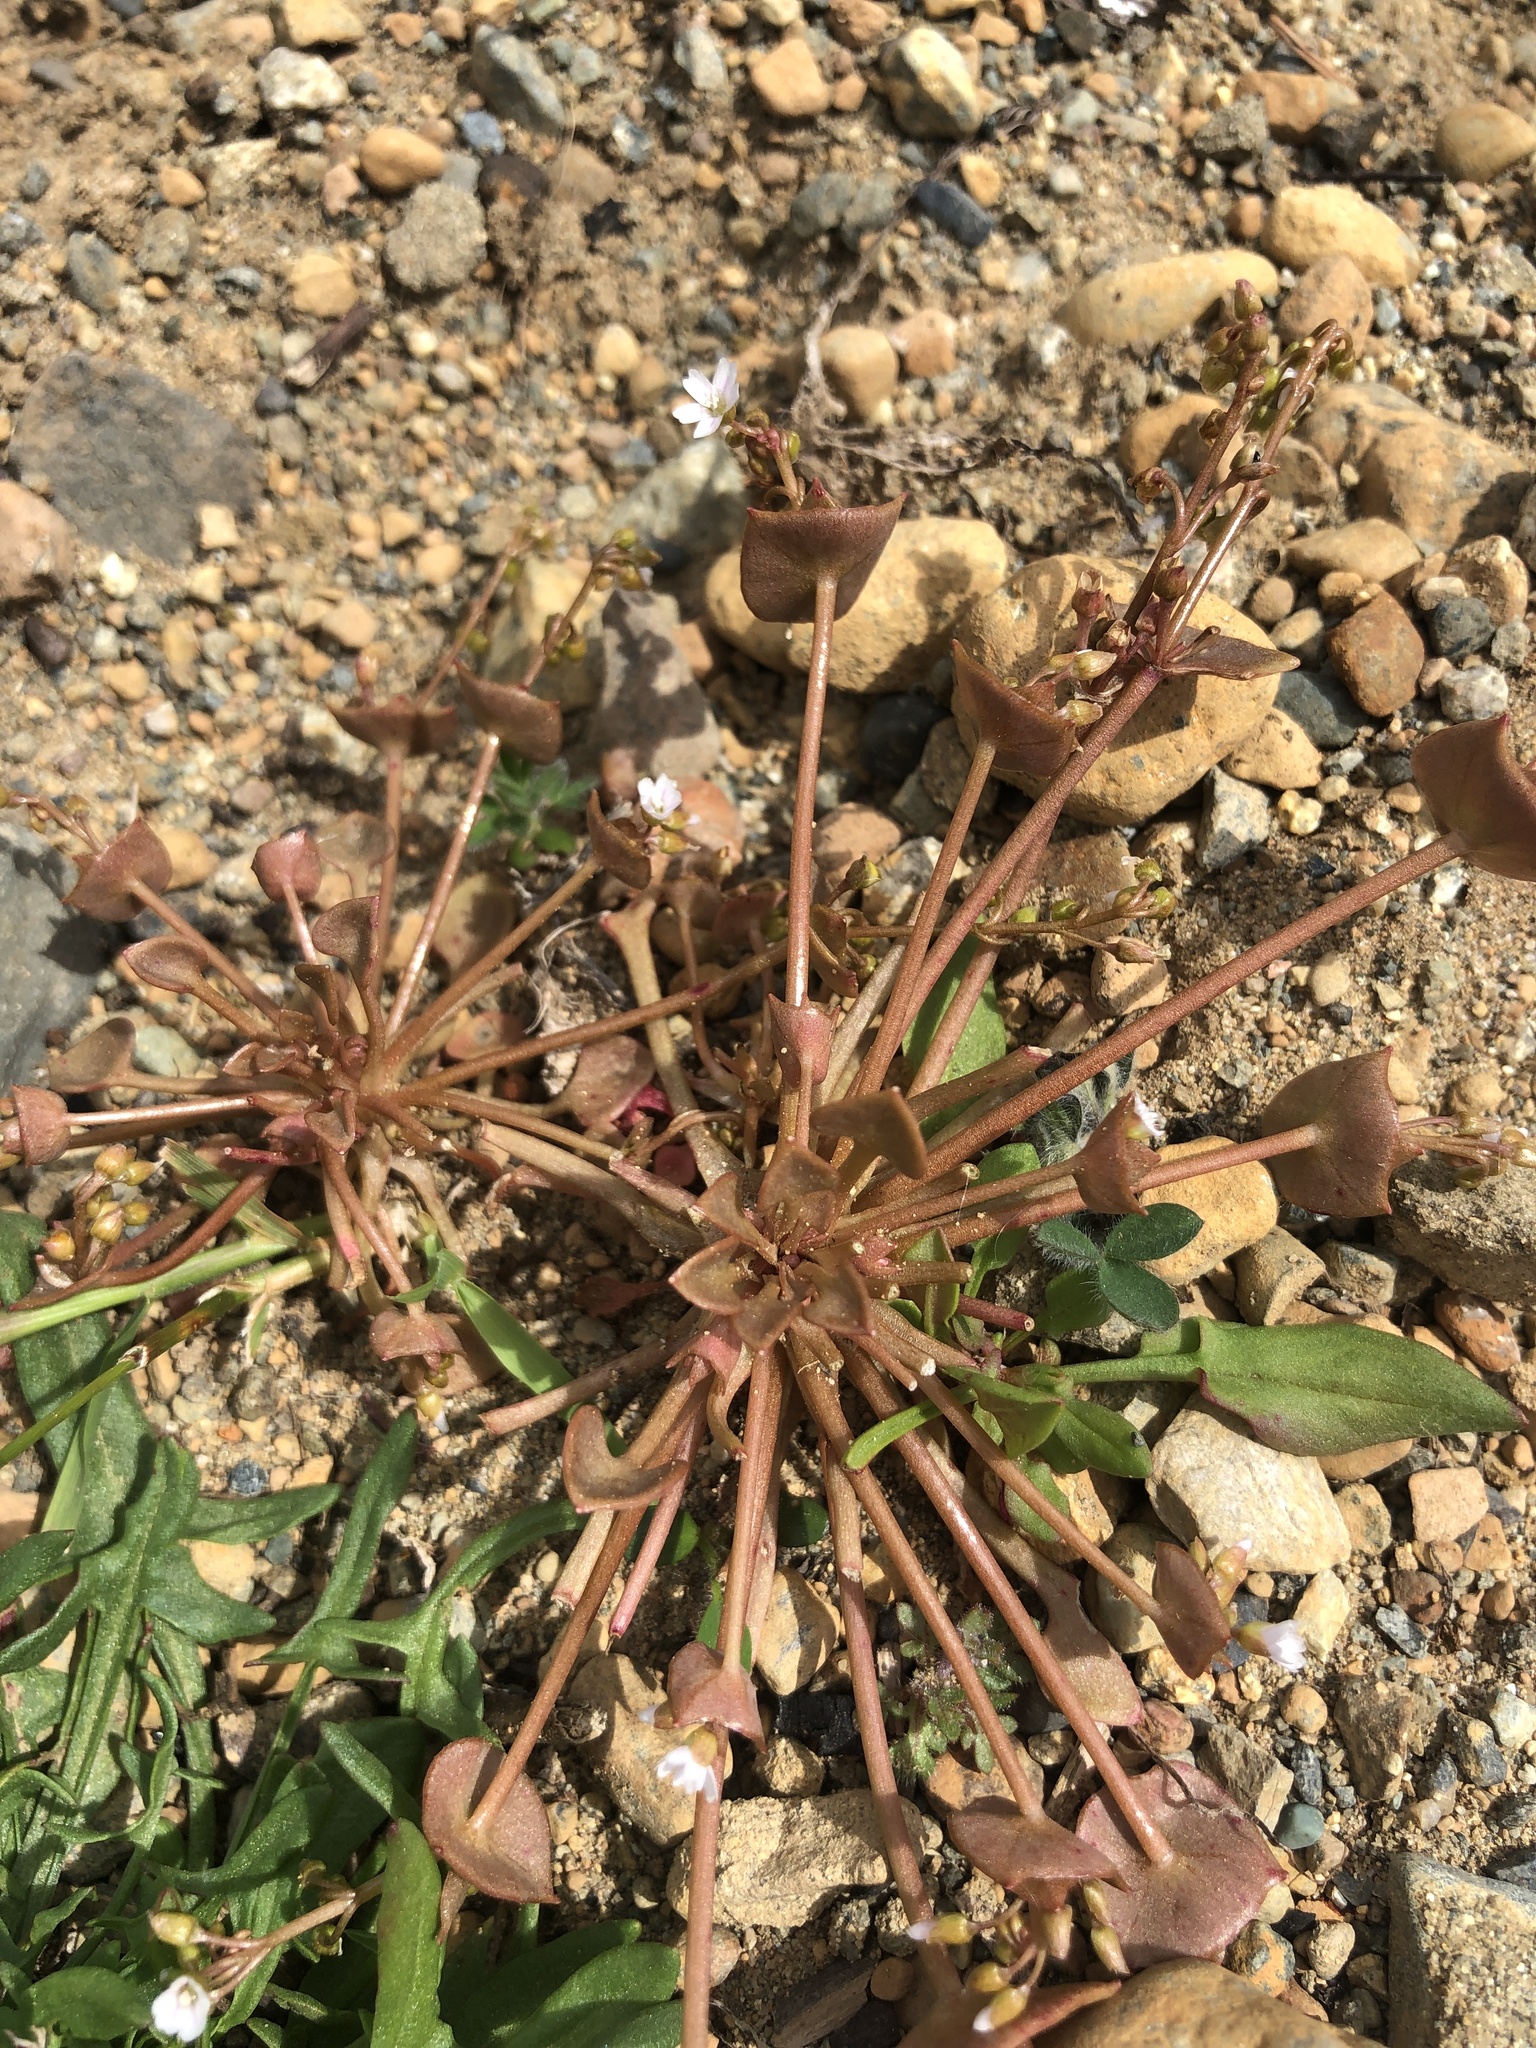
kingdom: Plantae
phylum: Tracheophyta
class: Magnoliopsida
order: Caryophyllales
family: Montiaceae
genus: Claytonia
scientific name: Claytonia rubra
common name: Erubescent miner's-lettuce
